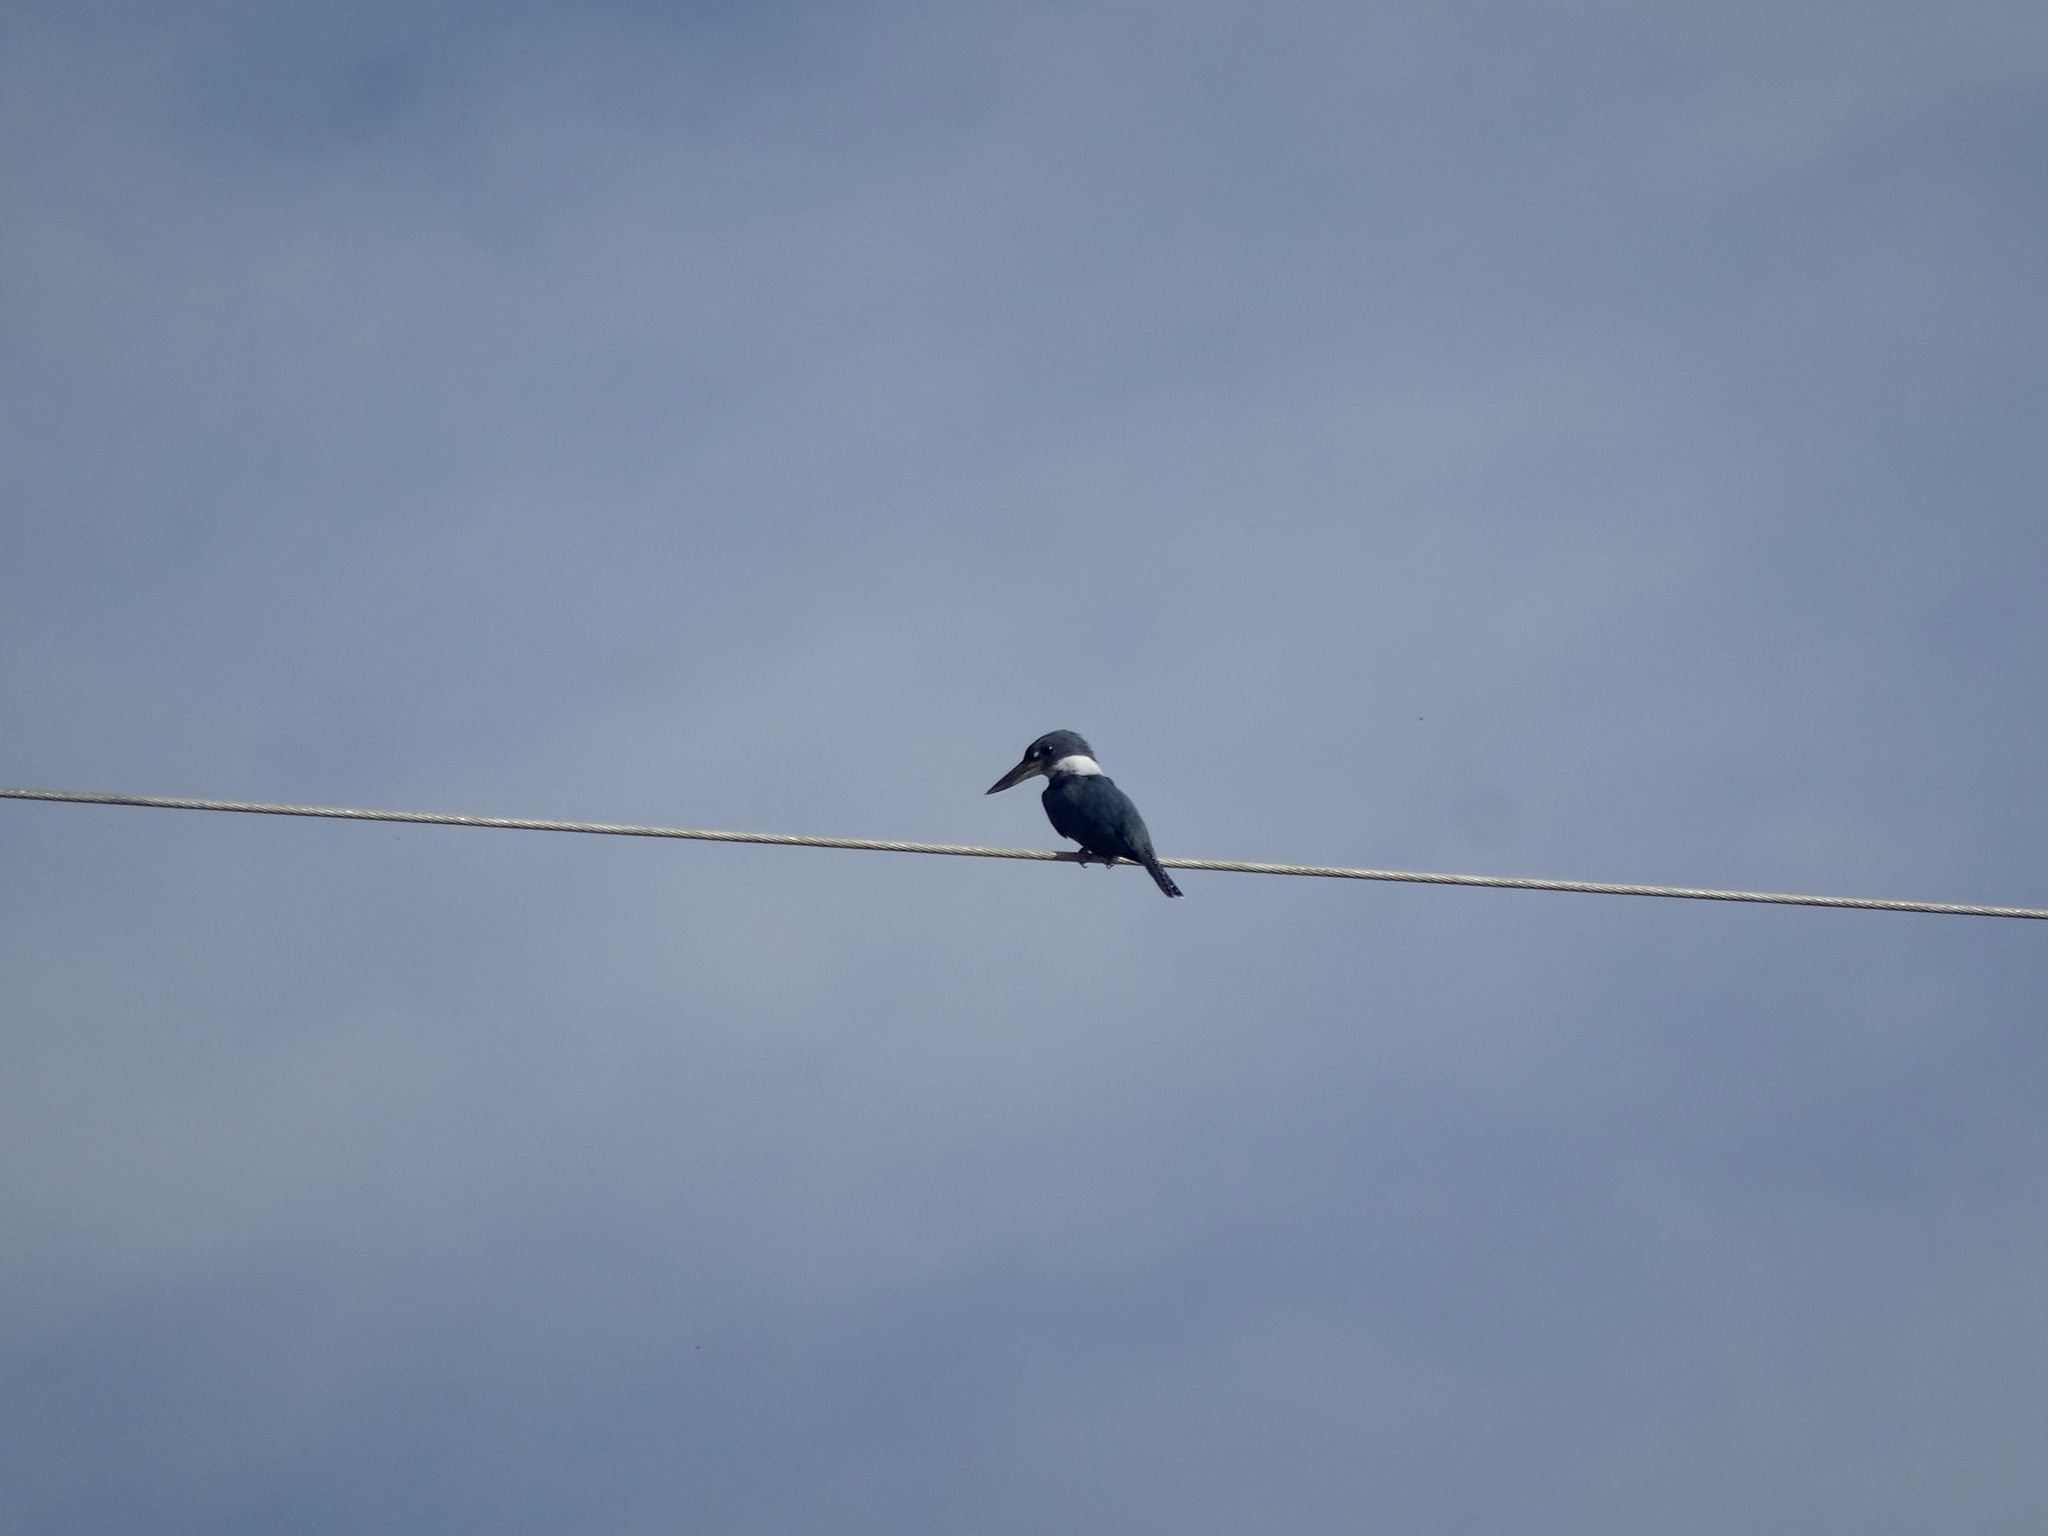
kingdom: Animalia
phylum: Chordata
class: Aves
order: Coraciiformes
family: Alcedinidae
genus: Megaceryle
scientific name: Megaceryle torquata
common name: Ringed kingfisher
